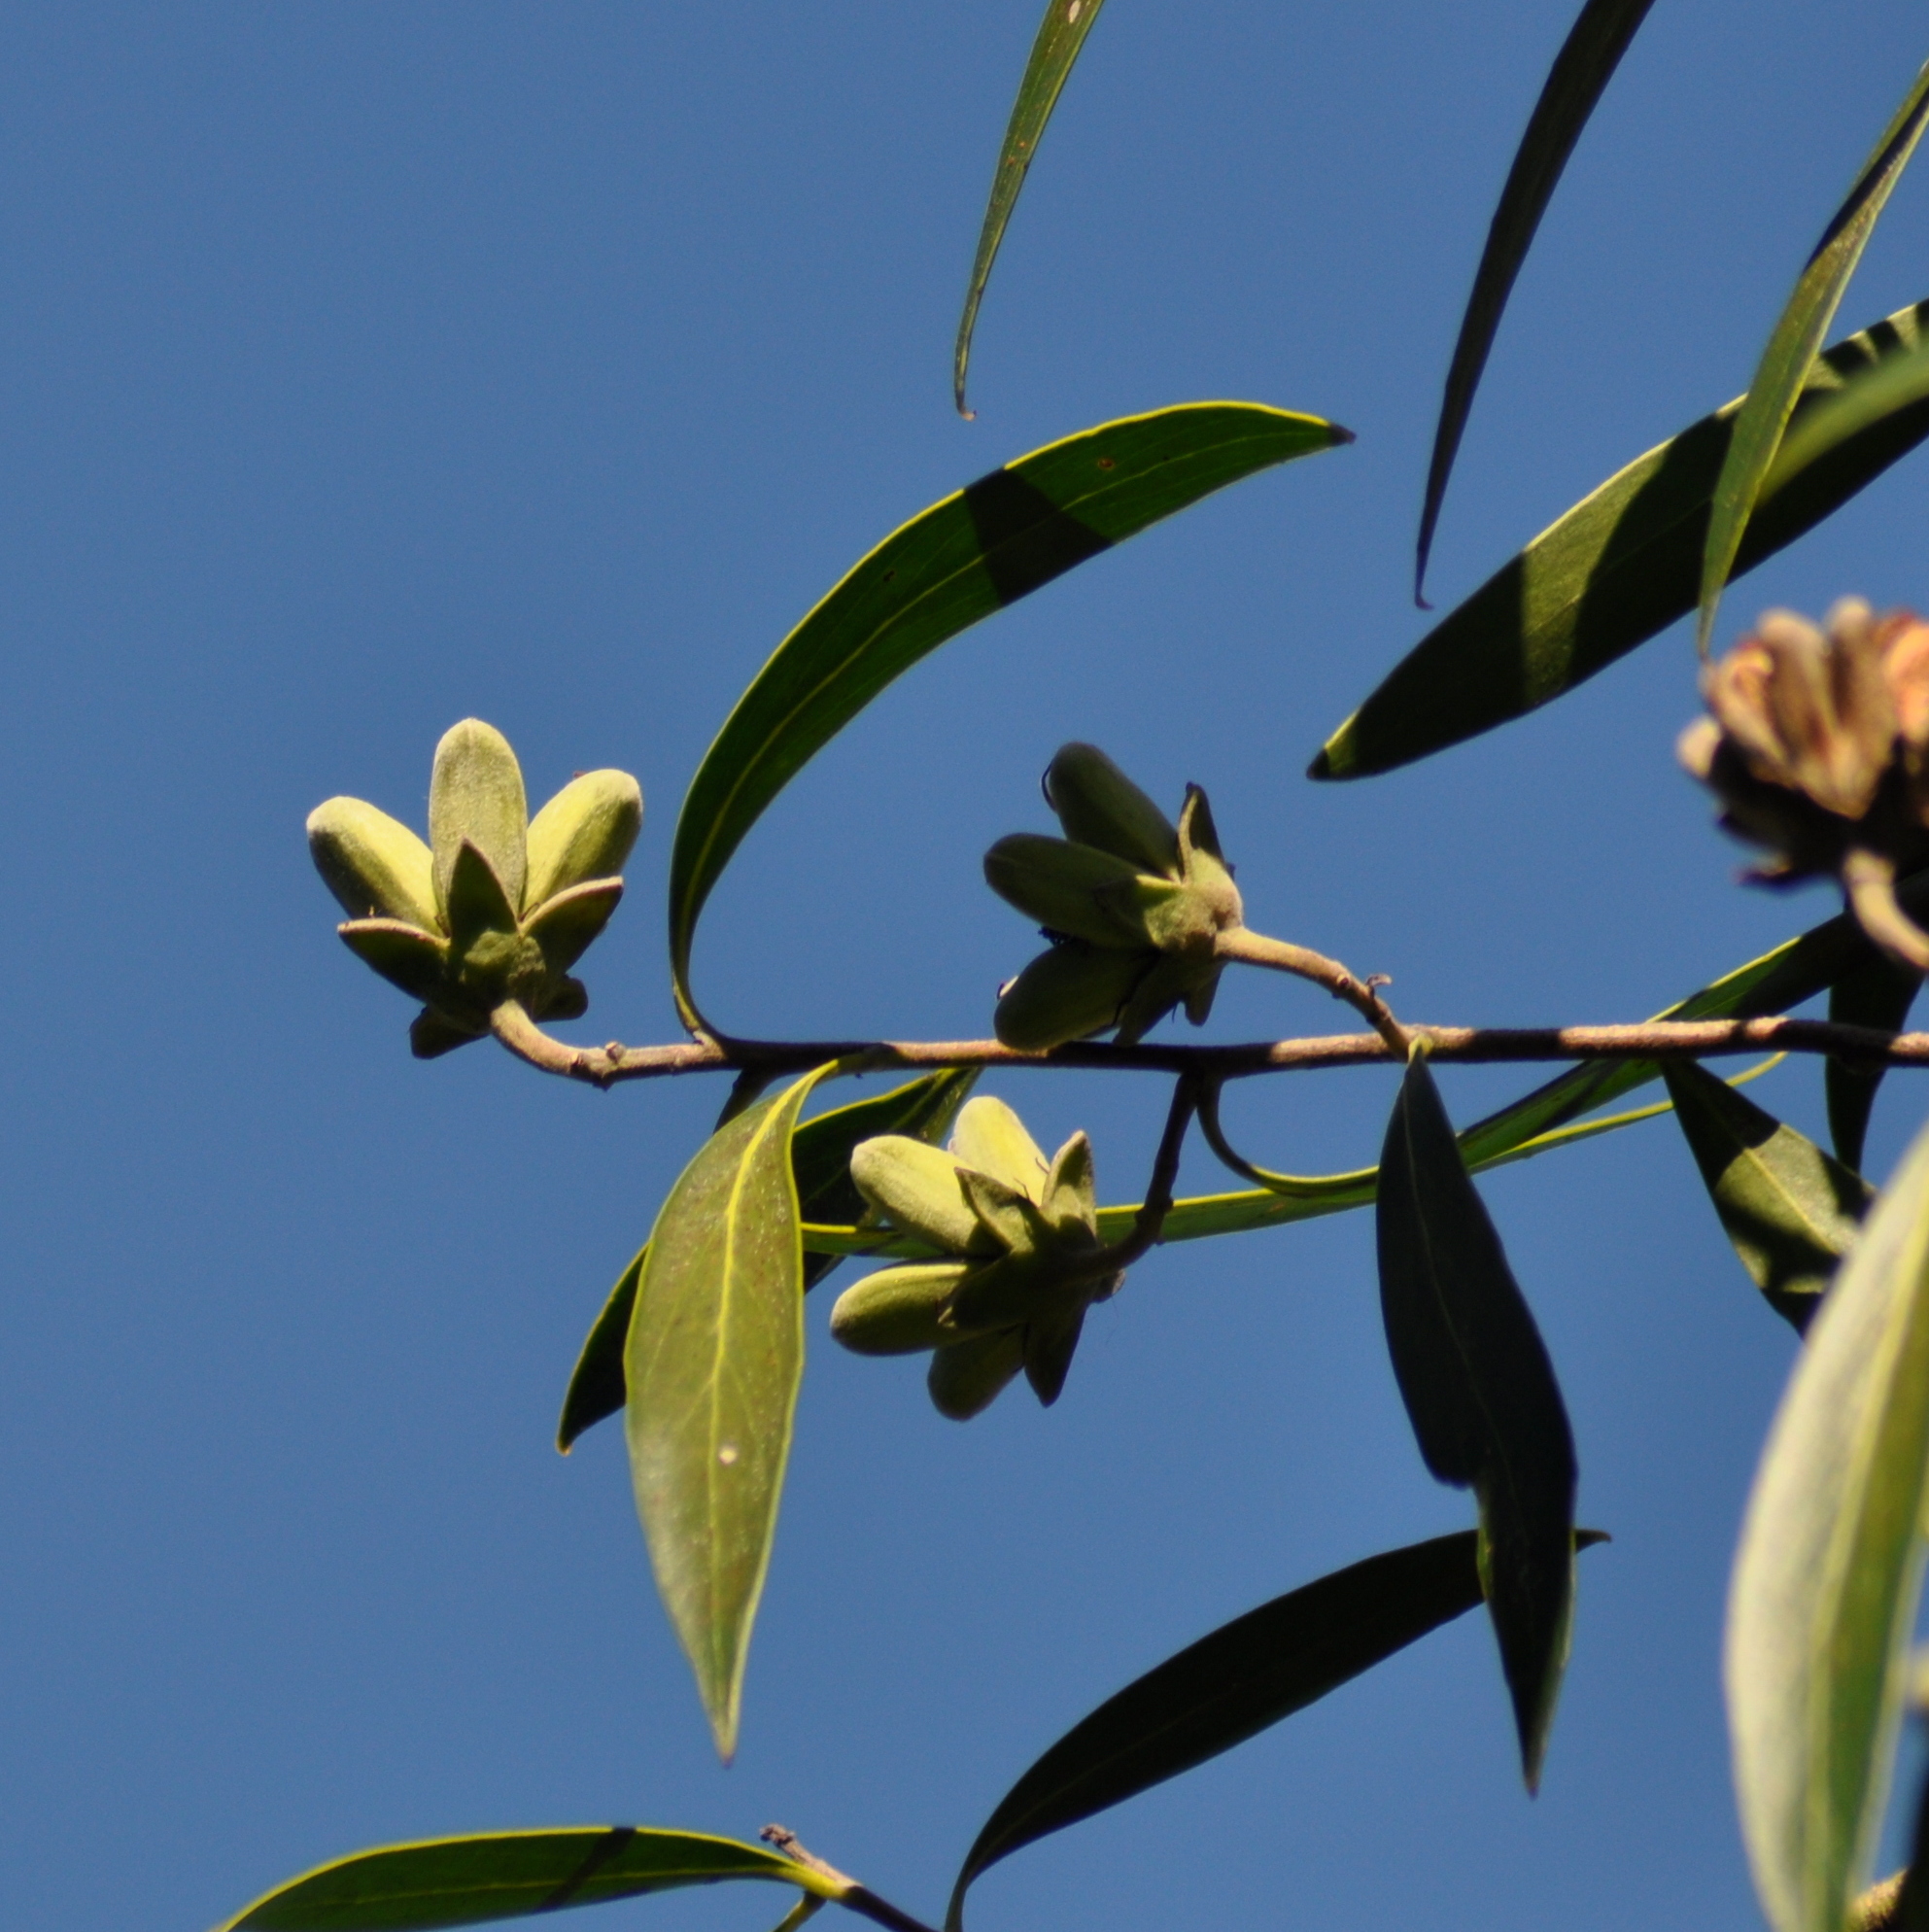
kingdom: Plantae
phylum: Tracheophyta
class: Magnoliopsida
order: Fabales
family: Quillajaceae
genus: Quillaja
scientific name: Quillaja brasiliensis
